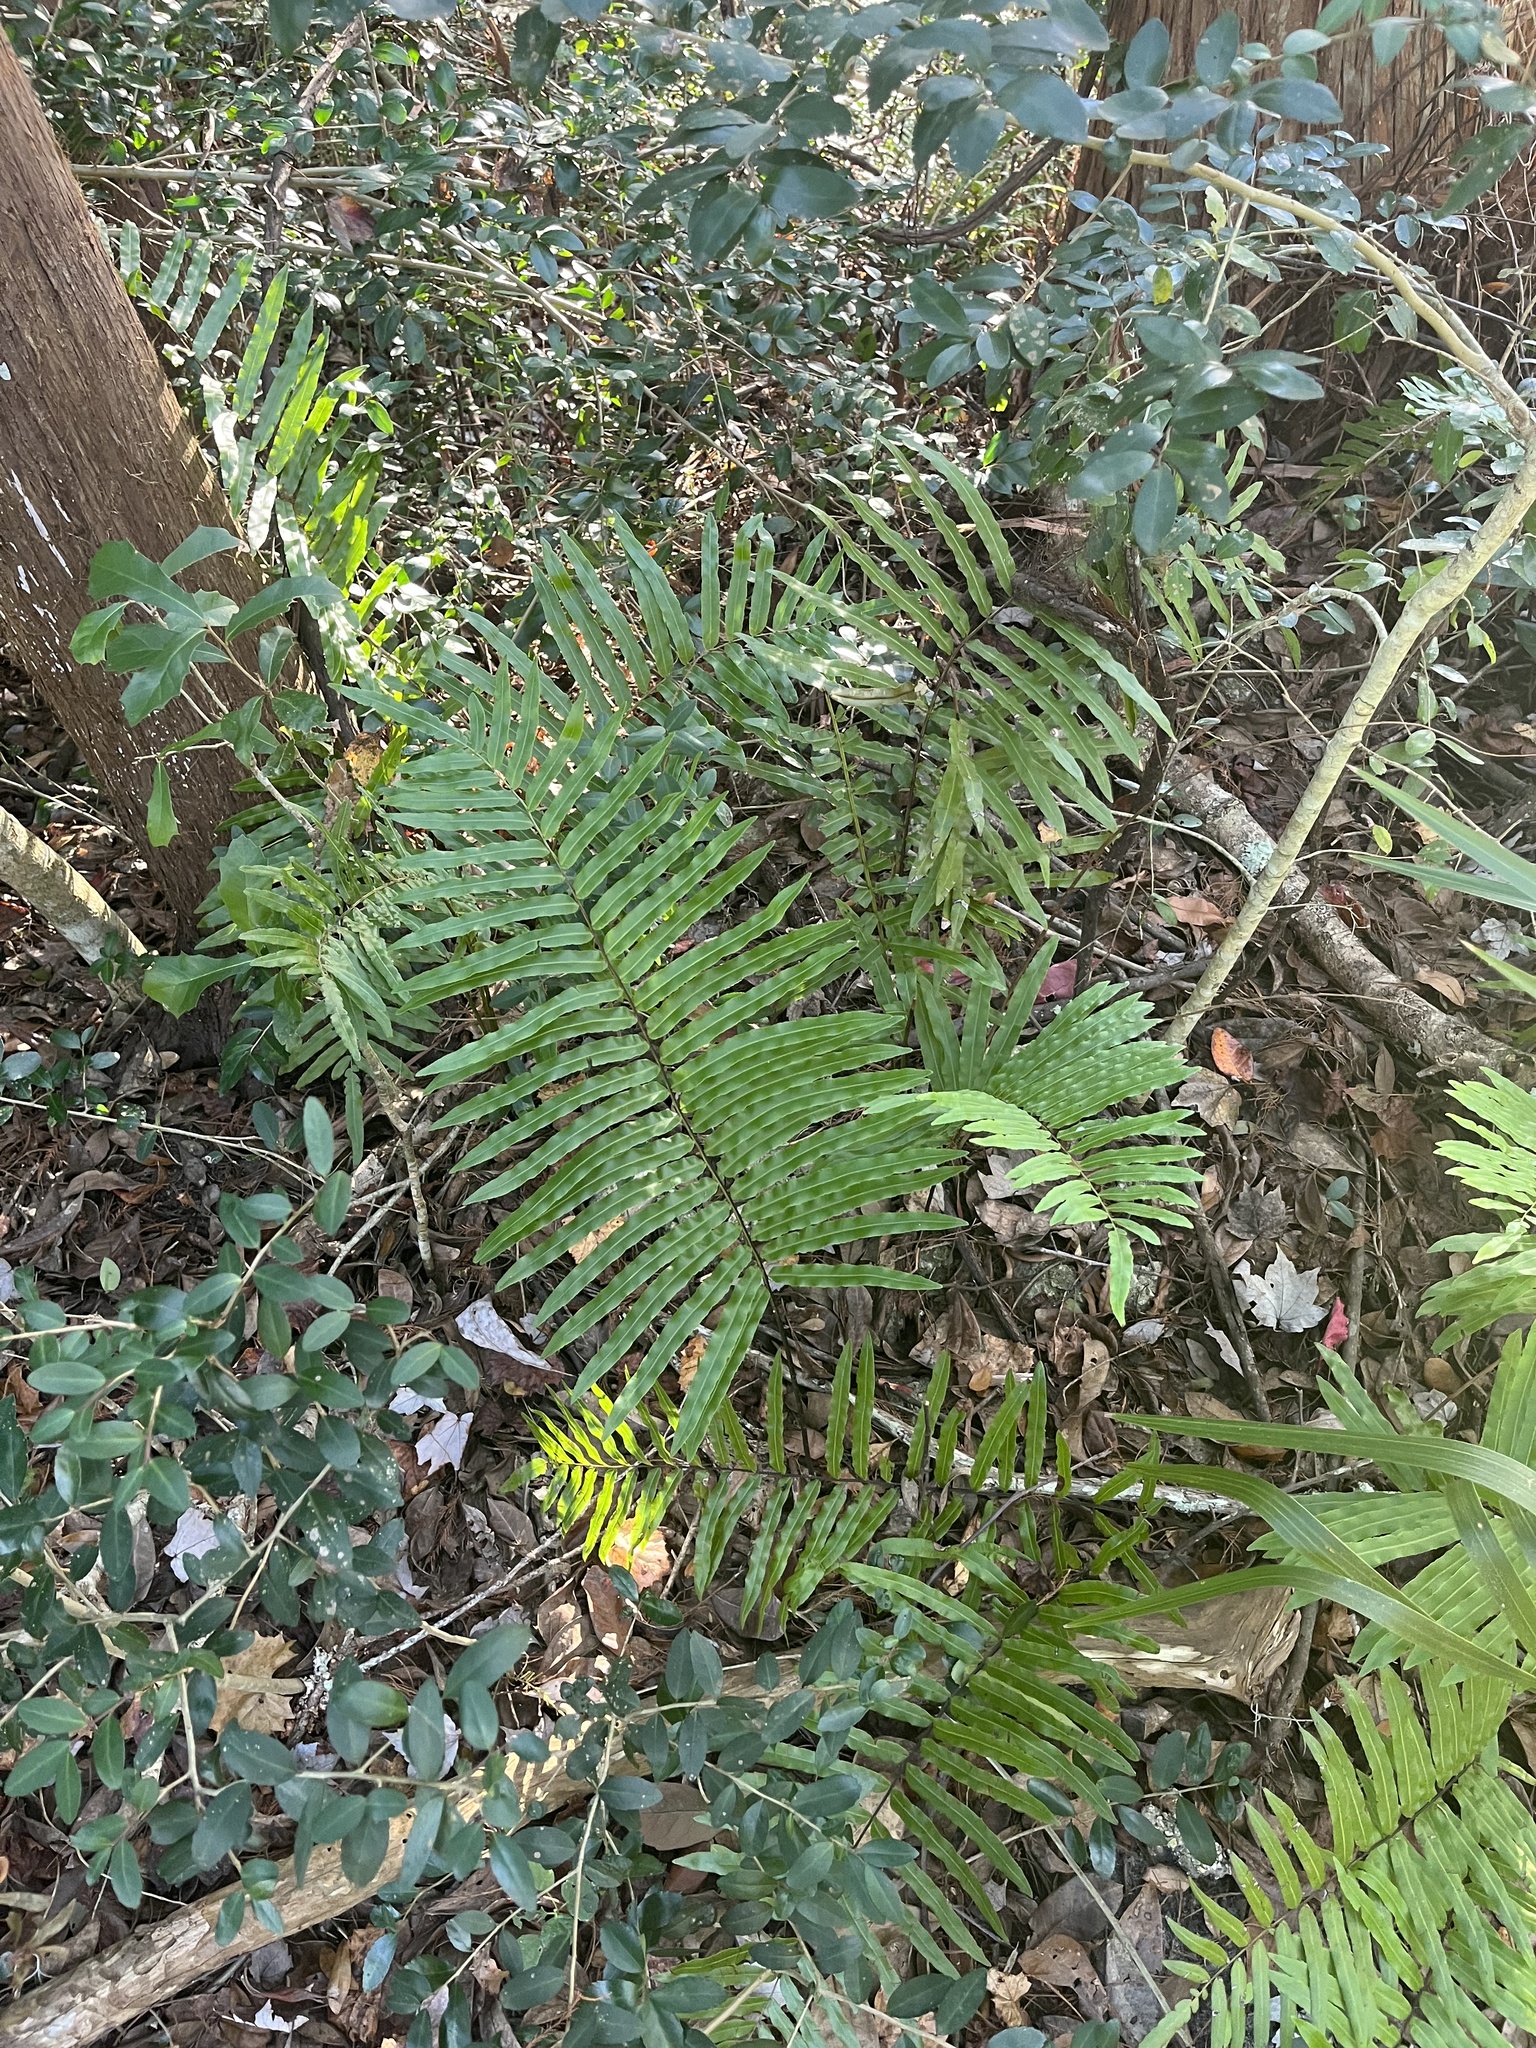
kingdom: Plantae
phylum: Tracheophyta
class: Polypodiopsida
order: Polypodiales
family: Blechnaceae
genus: Telmatoblechnum
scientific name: Telmatoblechnum serrulatum
